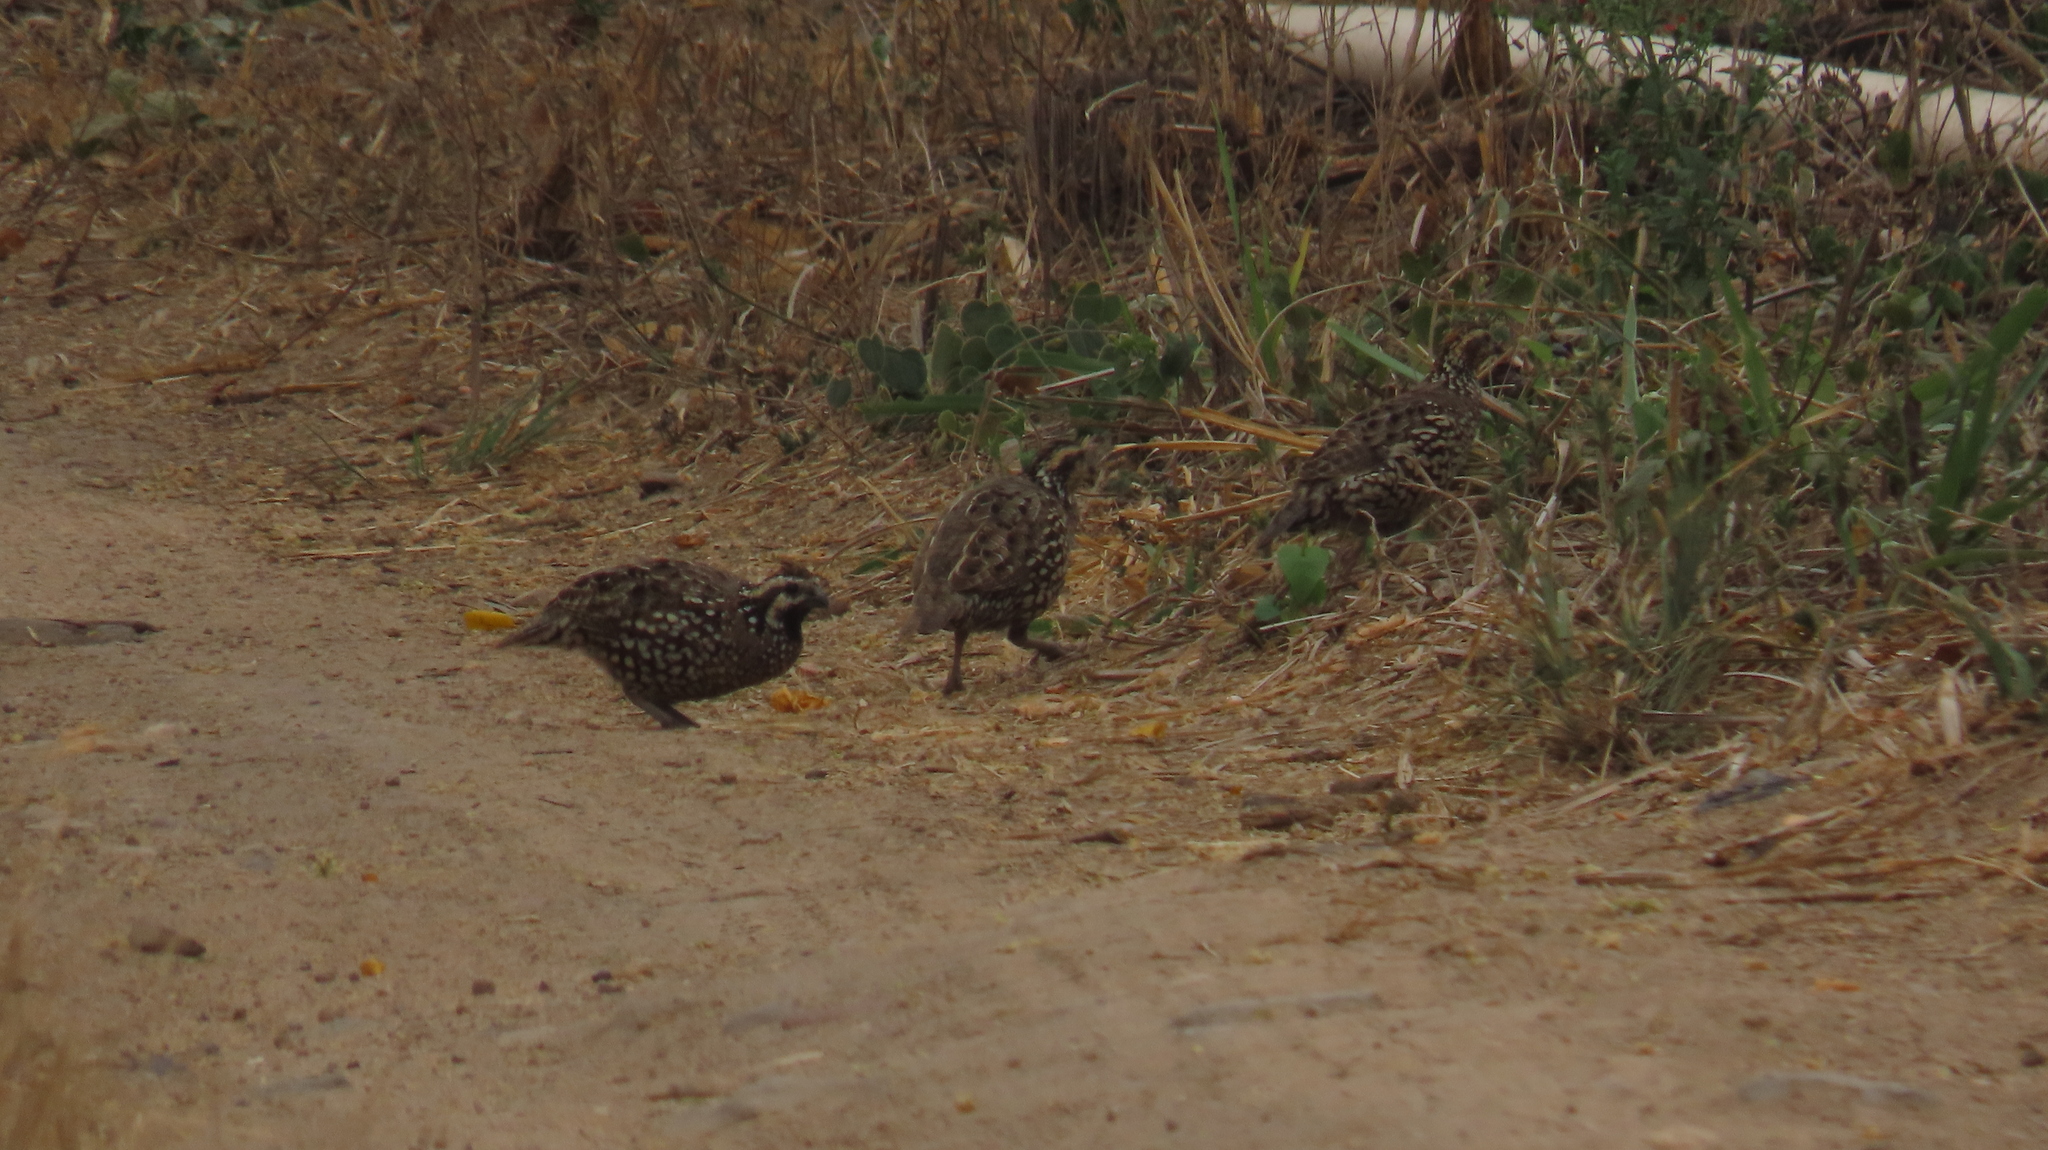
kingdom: Animalia
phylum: Chordata
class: Aves
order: Galliformes
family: Odontophoridae
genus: Colinus
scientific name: Colinus cristatus
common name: Crested bobwhite
